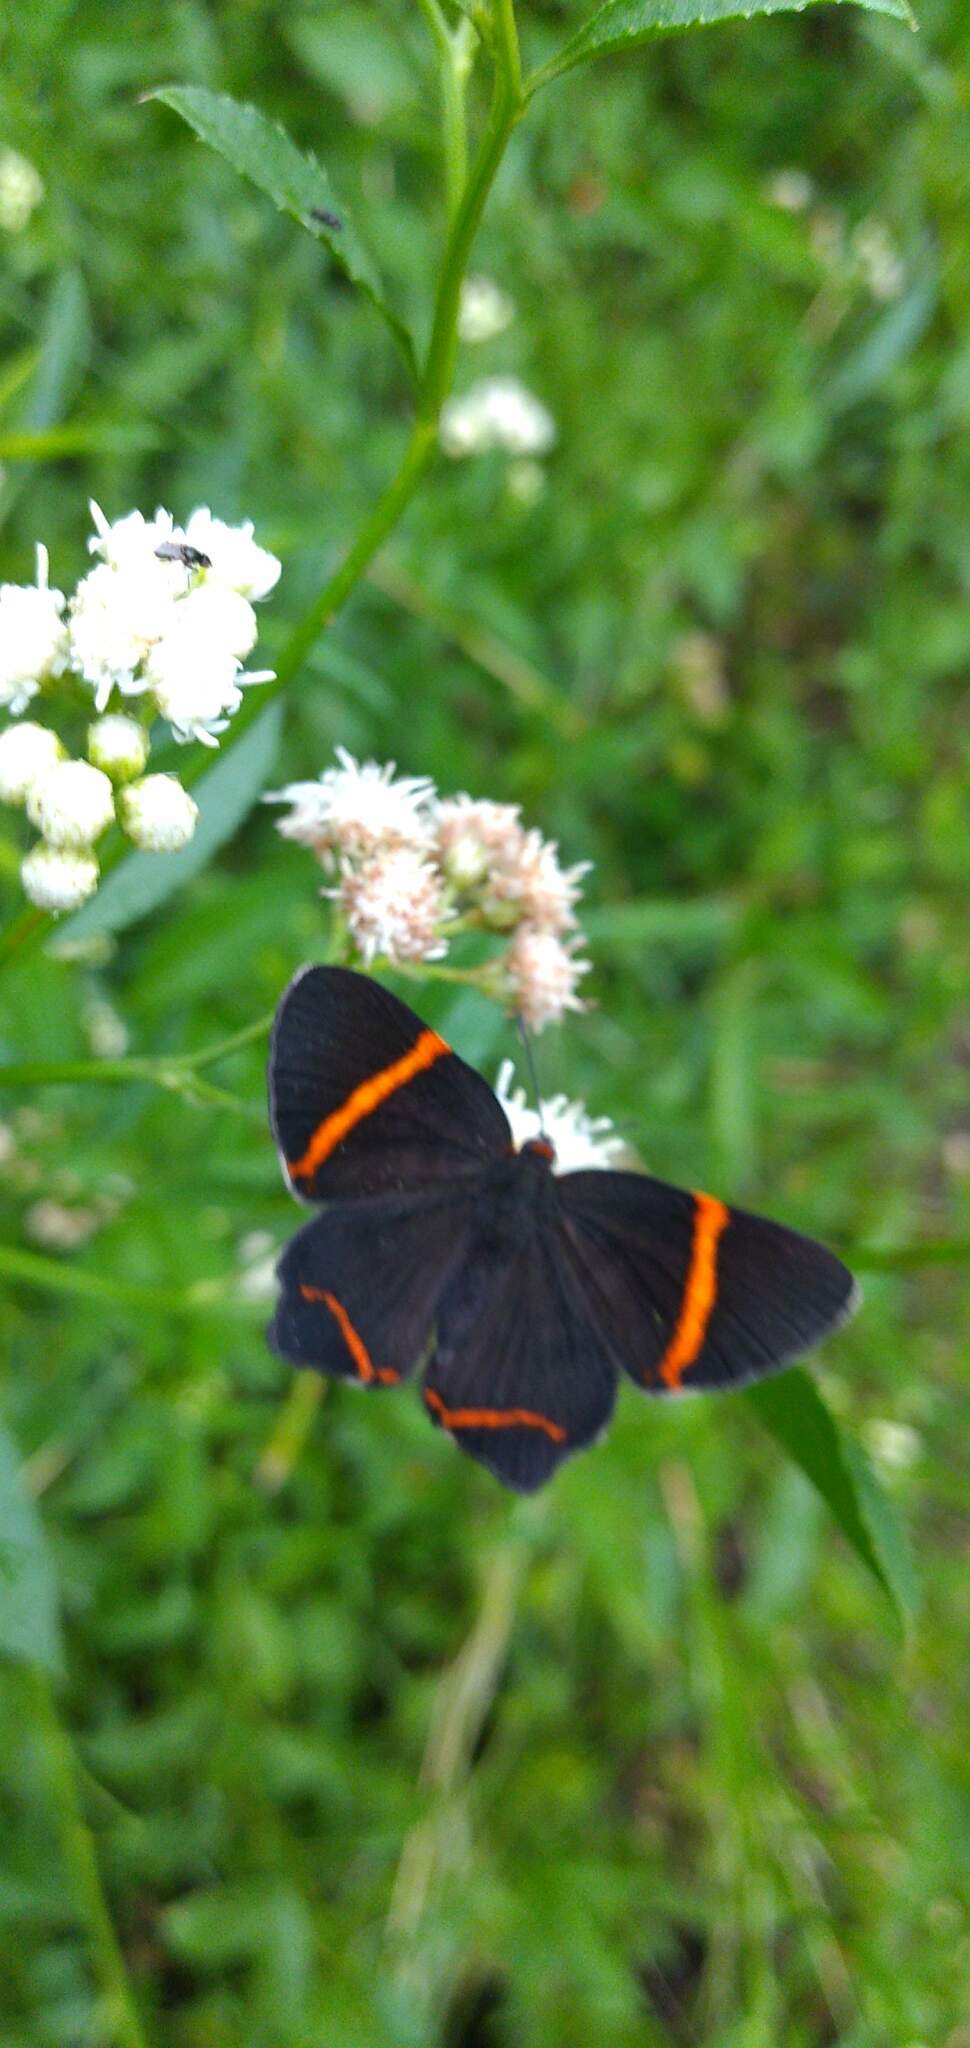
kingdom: Animalia
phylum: Arthropoda
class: Insecta
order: Lepidoptera
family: Riodinidae
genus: Riodina
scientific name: Riodina lysippoides
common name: Little dancer metalmark
